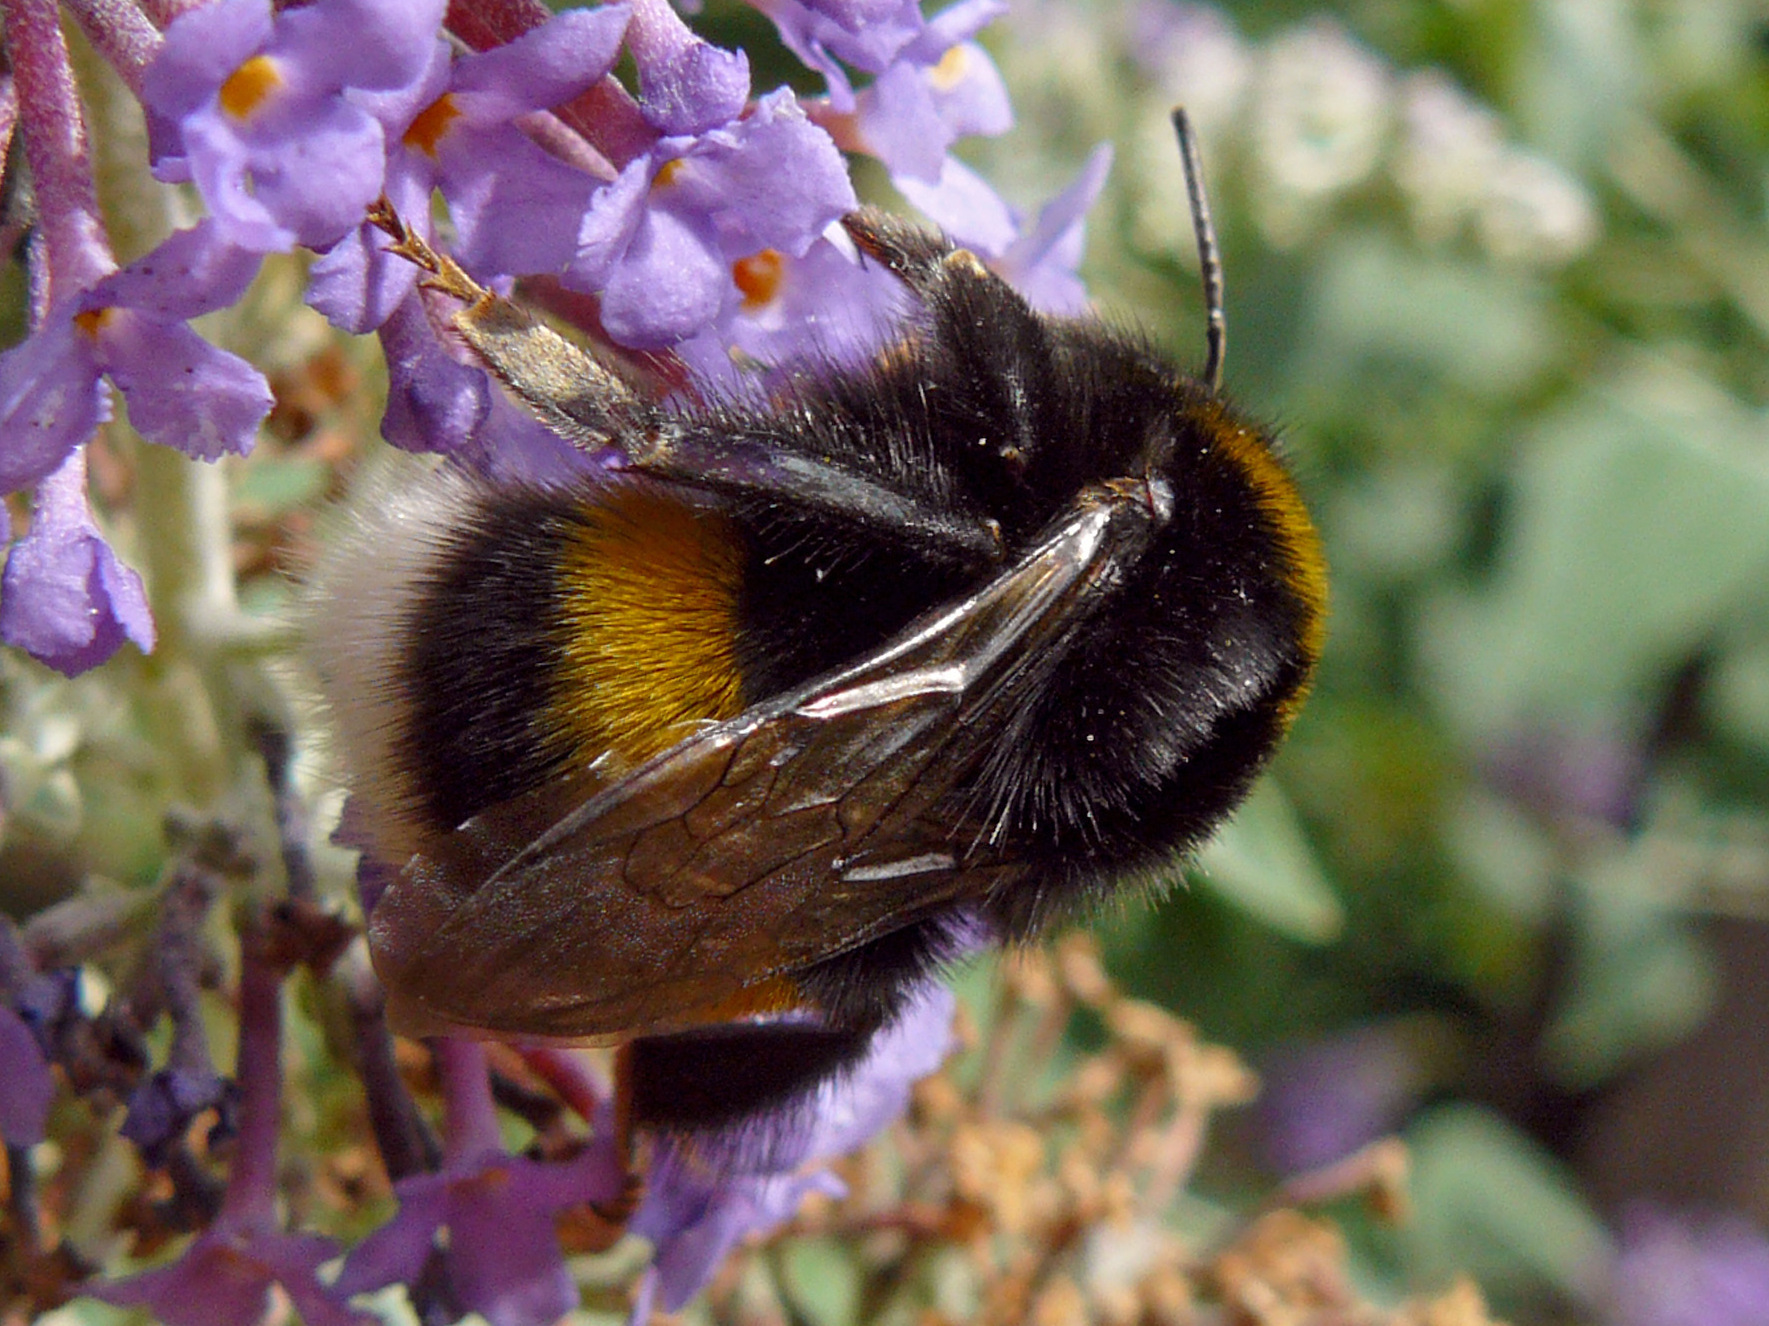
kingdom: Animalia
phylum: Arthropoda
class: Insecta
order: Hymenoptera
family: Apidae
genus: Bombus
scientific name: Bombus terrestris
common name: Buff-tailed bumblebee
